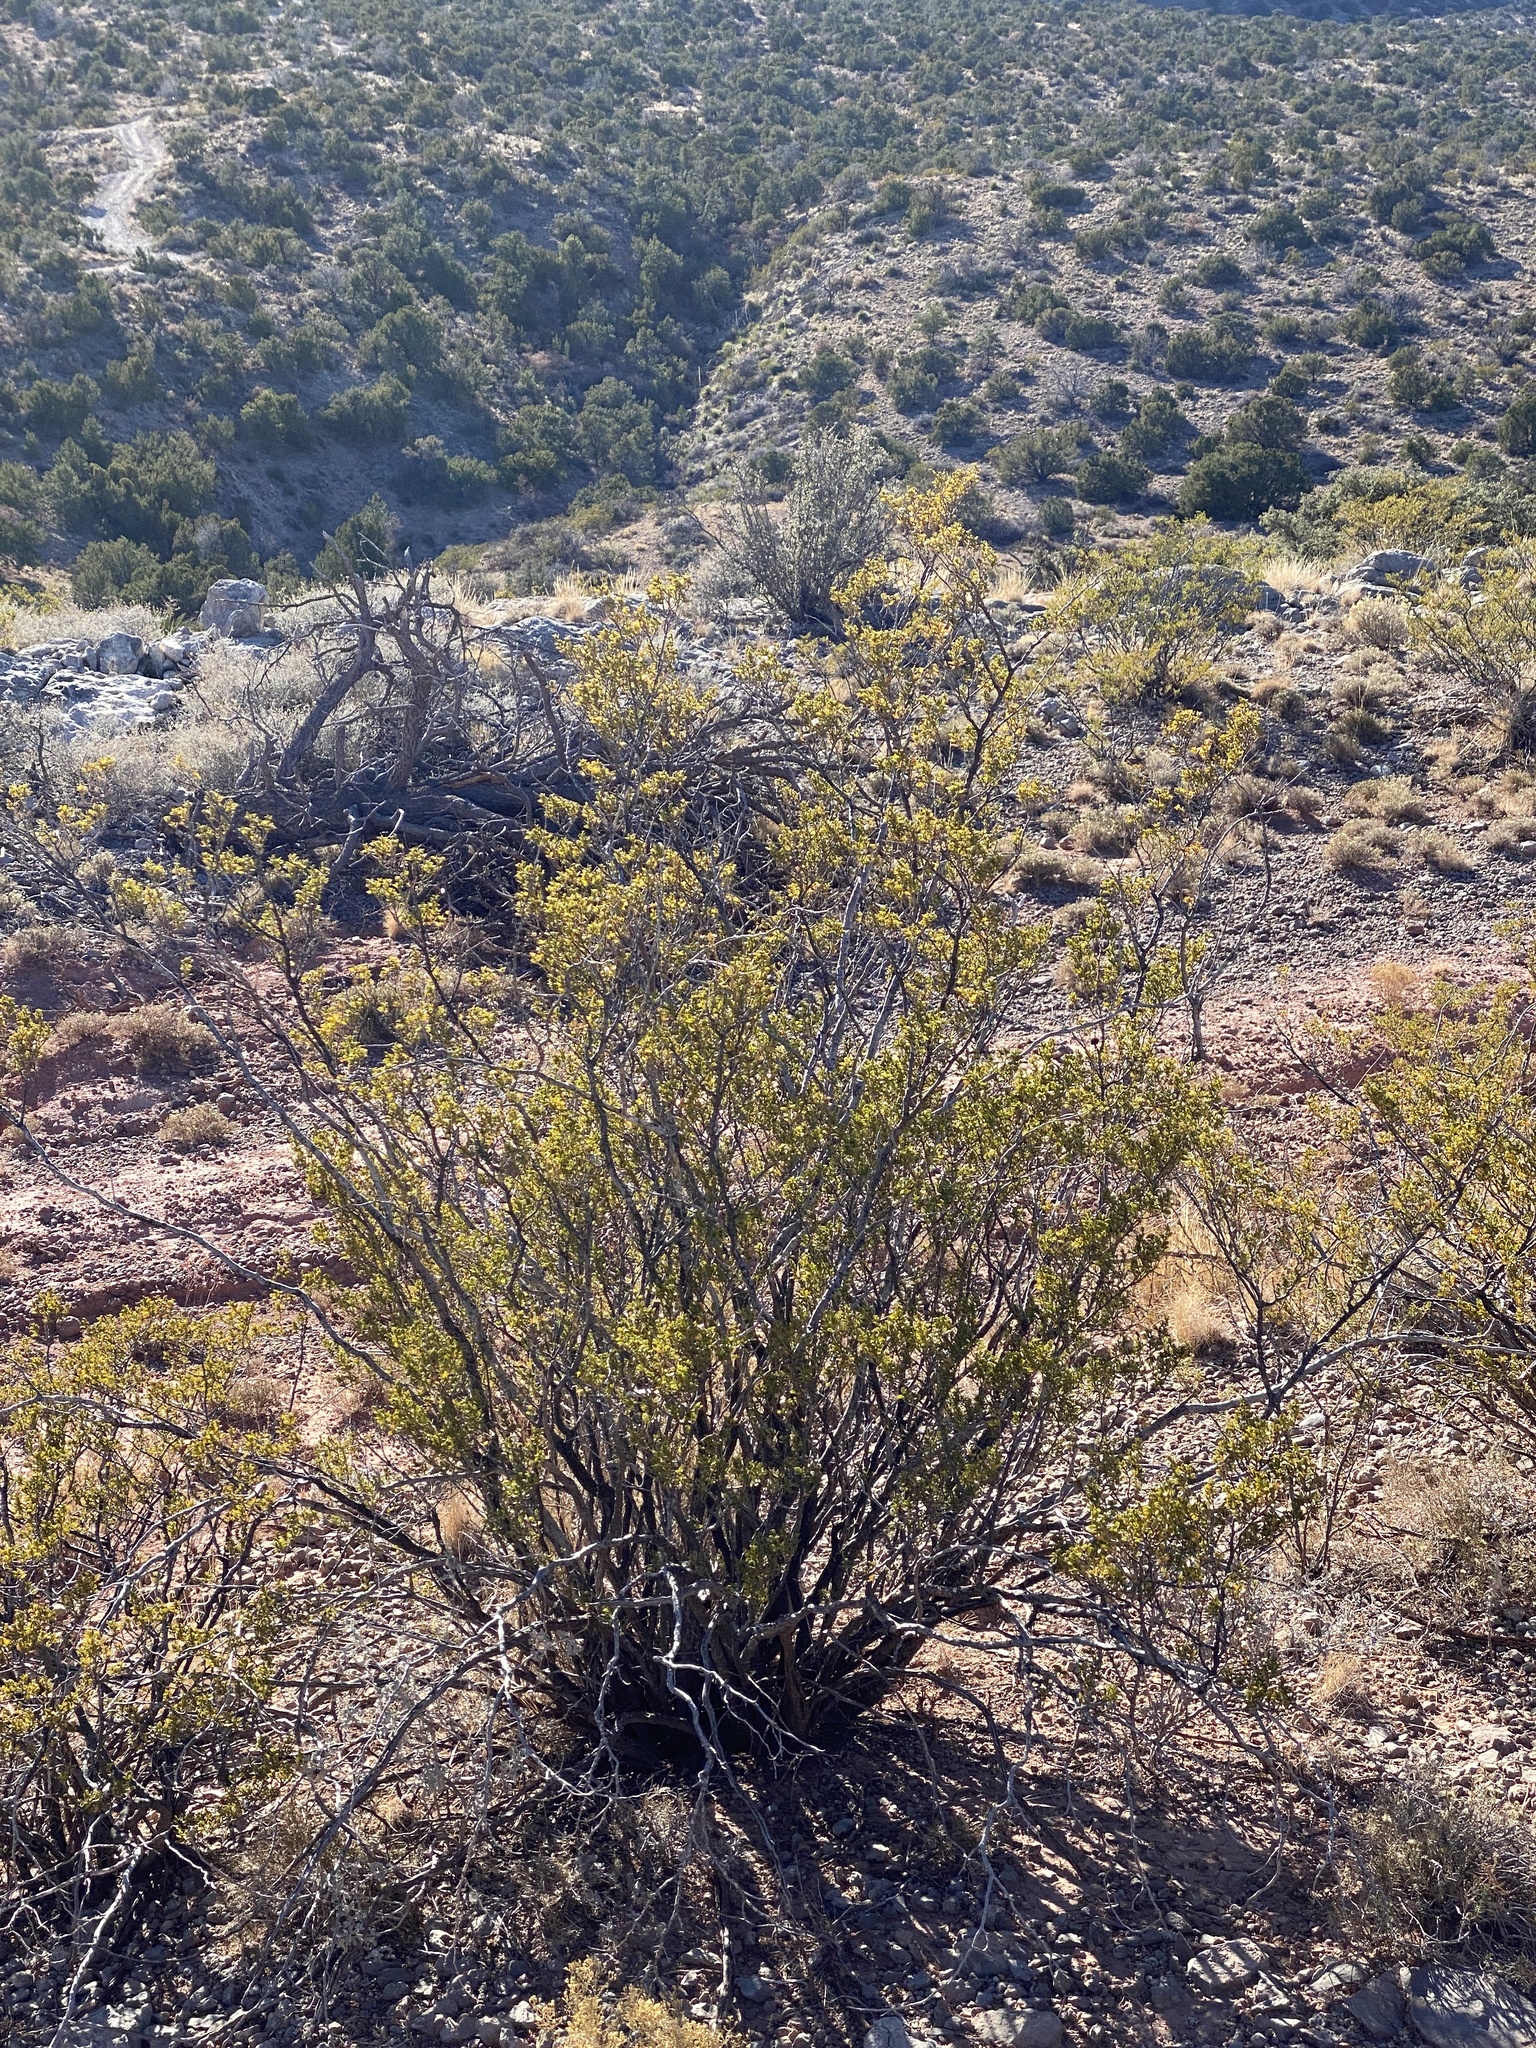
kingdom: Plantae
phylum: Tracheophyta
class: Magnoliopsida
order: Zygophyllales
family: Zygophyllaceae
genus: Larrea
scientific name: Larrea tridentata
